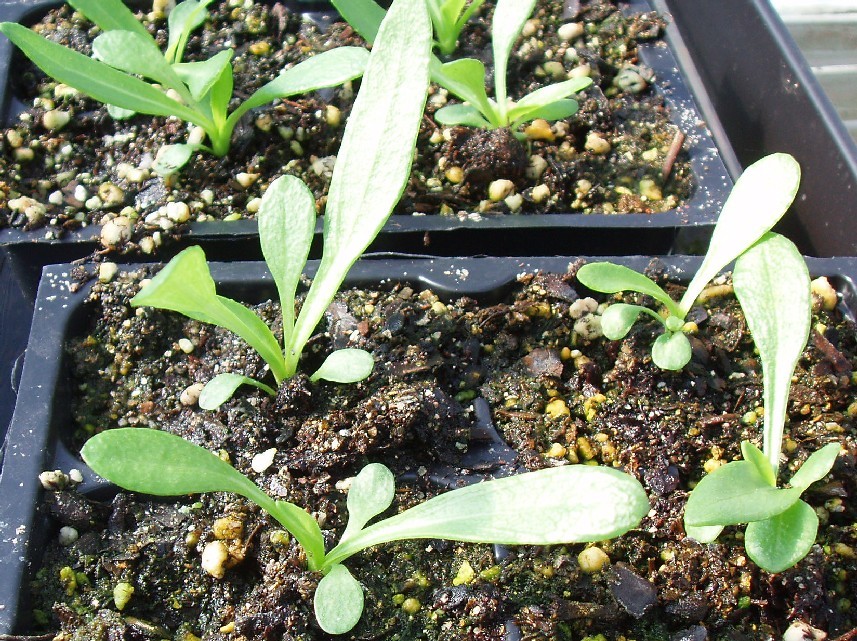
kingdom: Plantae
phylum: Tracheophyta
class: Magnoliopsida
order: Asterales
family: Asteraceae
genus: Helianthus
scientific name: Helianthus carnosus
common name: Fleshy sunflower
